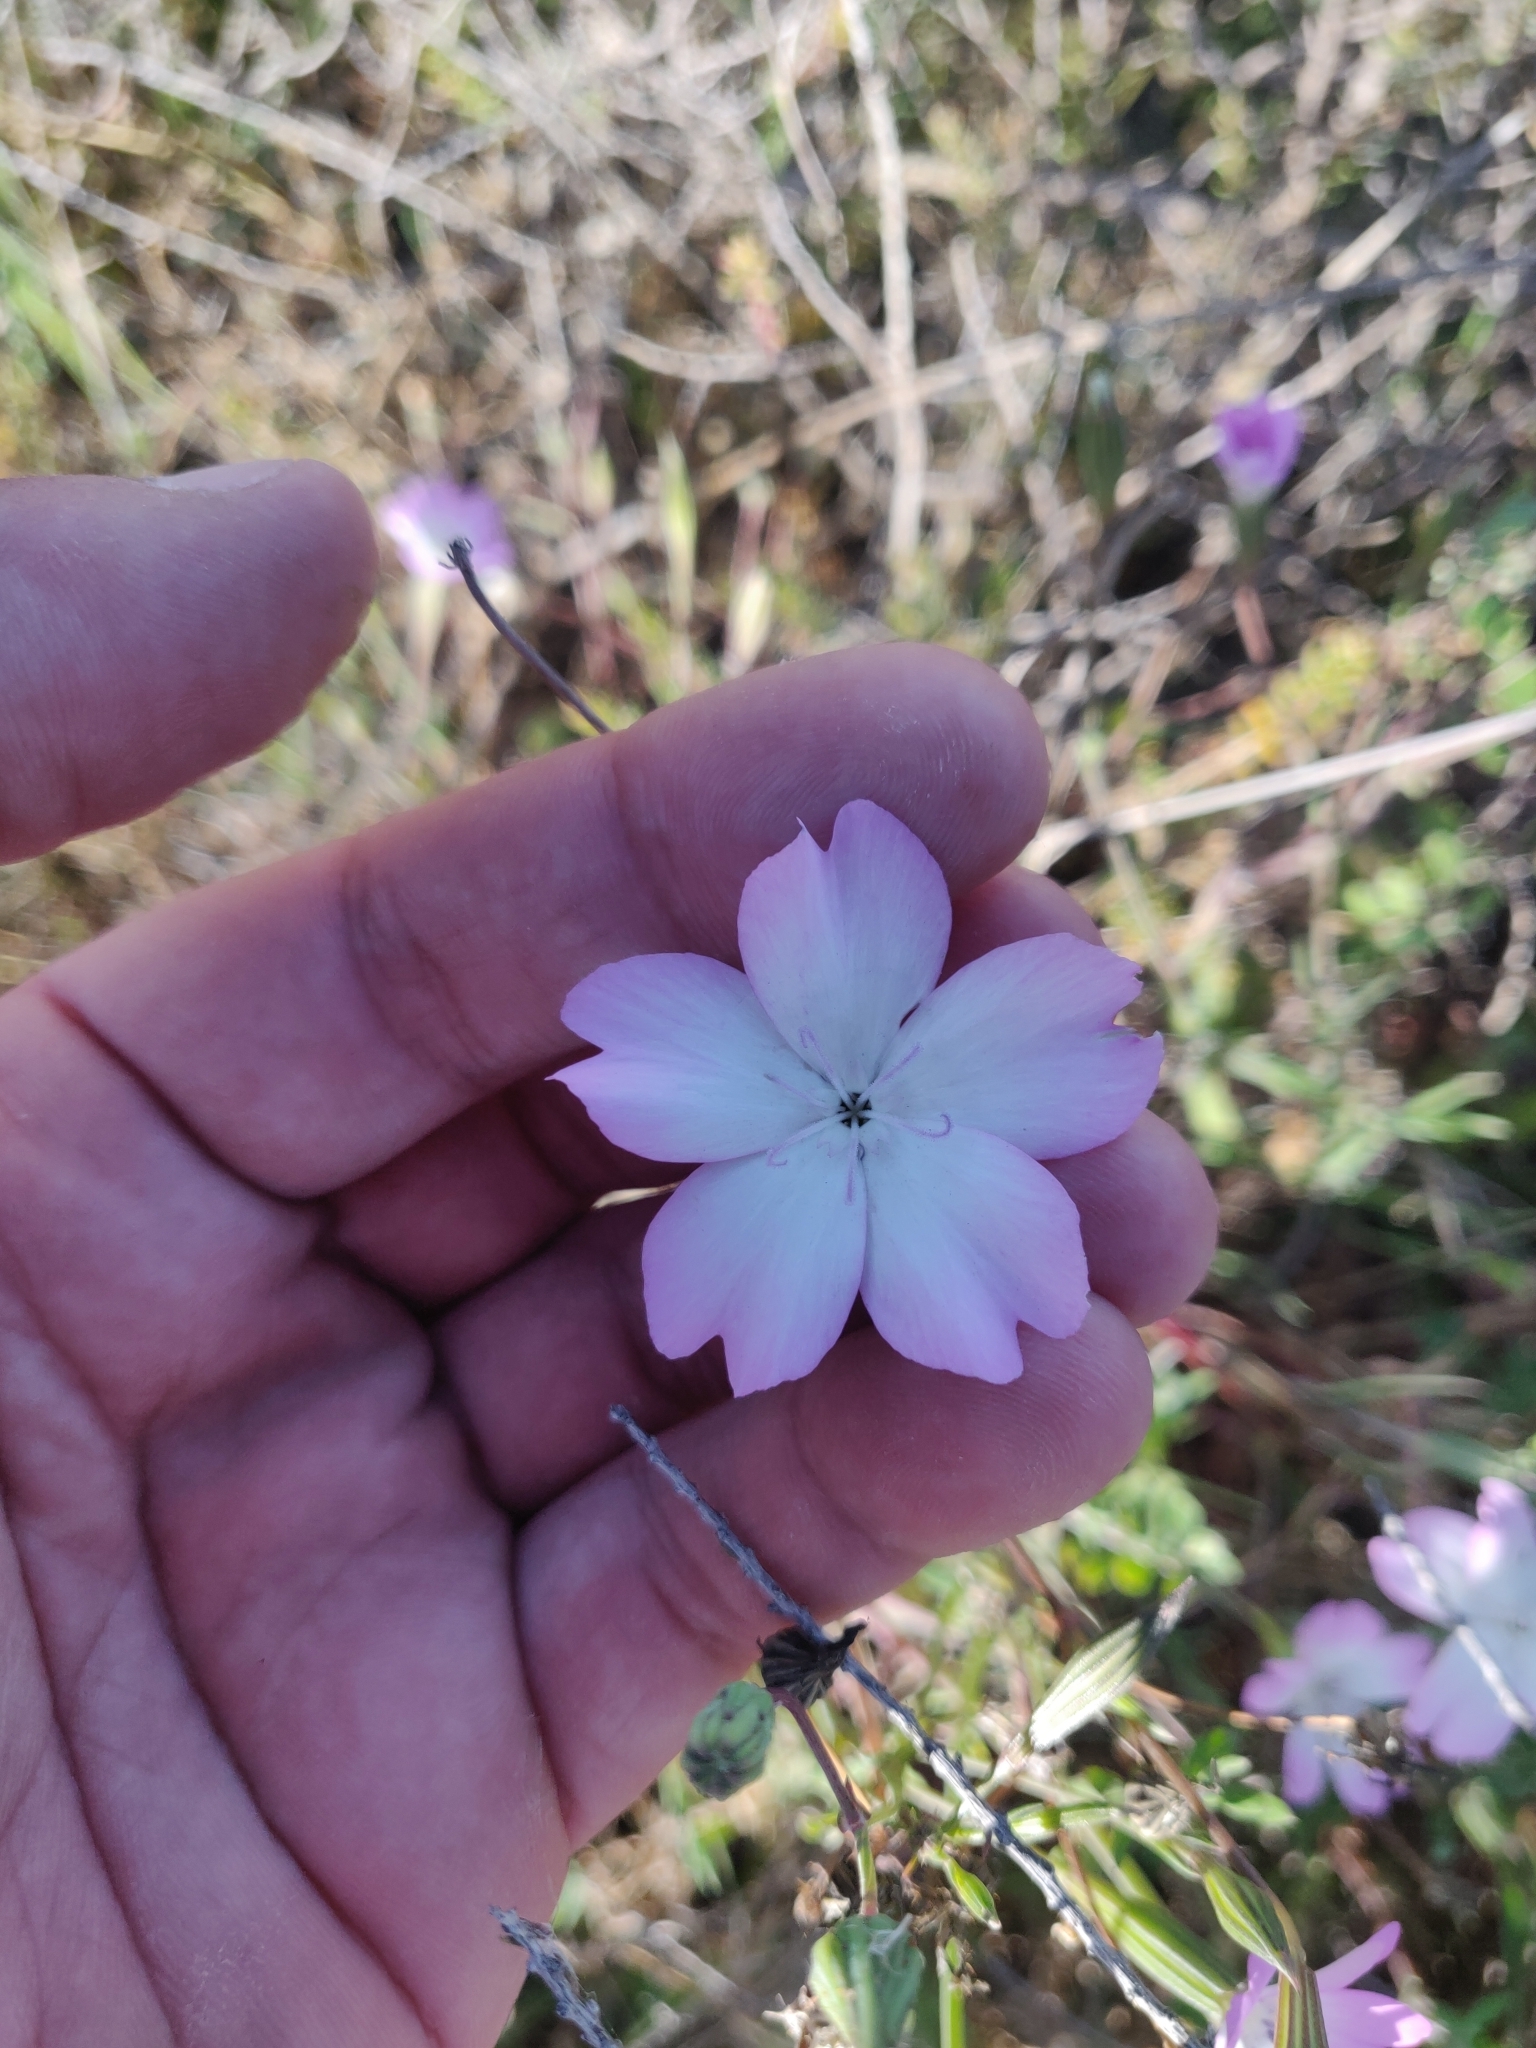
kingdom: Plantae
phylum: Tracheophyta
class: Magnoliopsida
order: Caryophyllales
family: Caryophyllaceae
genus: Eudianthe
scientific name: Eudianthe coeli-rosa
